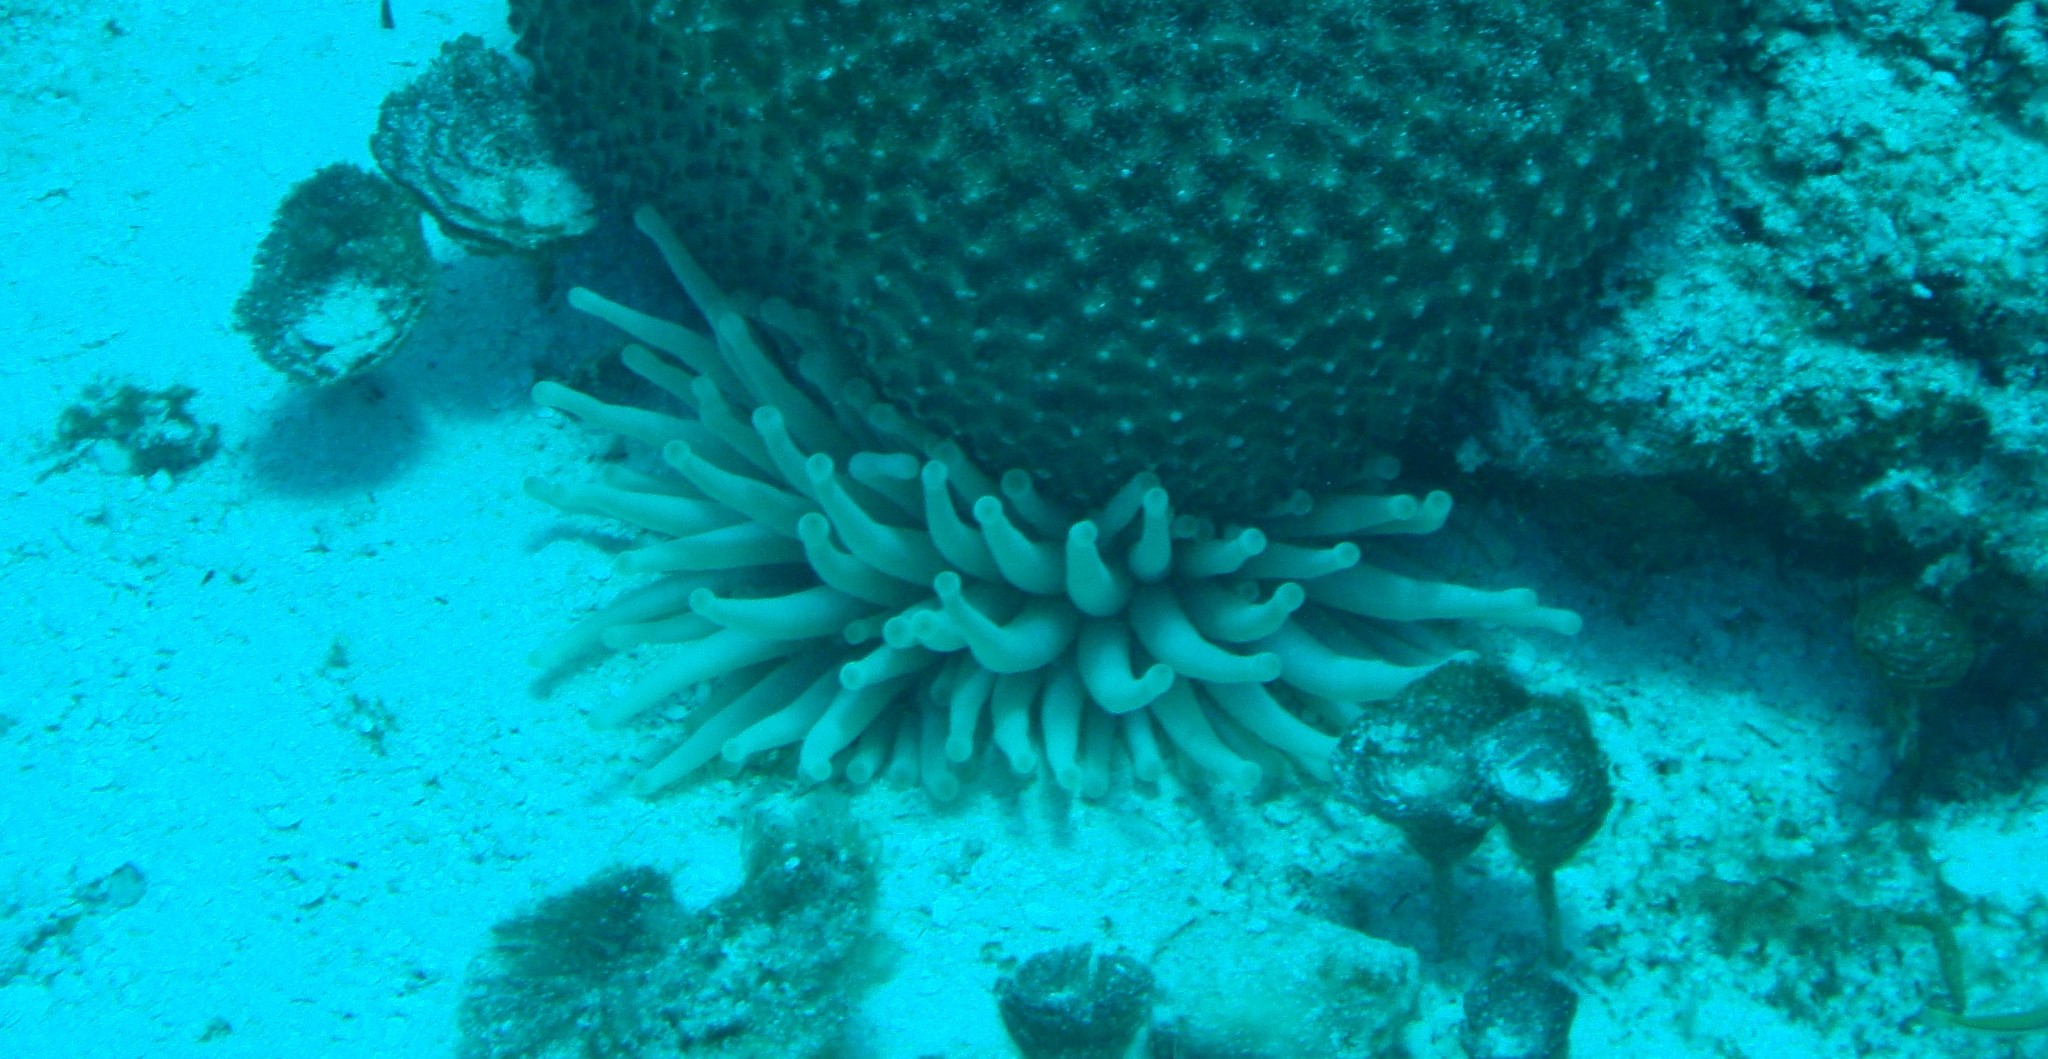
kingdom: Animalia
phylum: Cnidaria
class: Anthozoa
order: Actiniaria
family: Actiniidae
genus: Condylactis
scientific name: Condylactis gigantea
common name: Giant caribbean anemone
